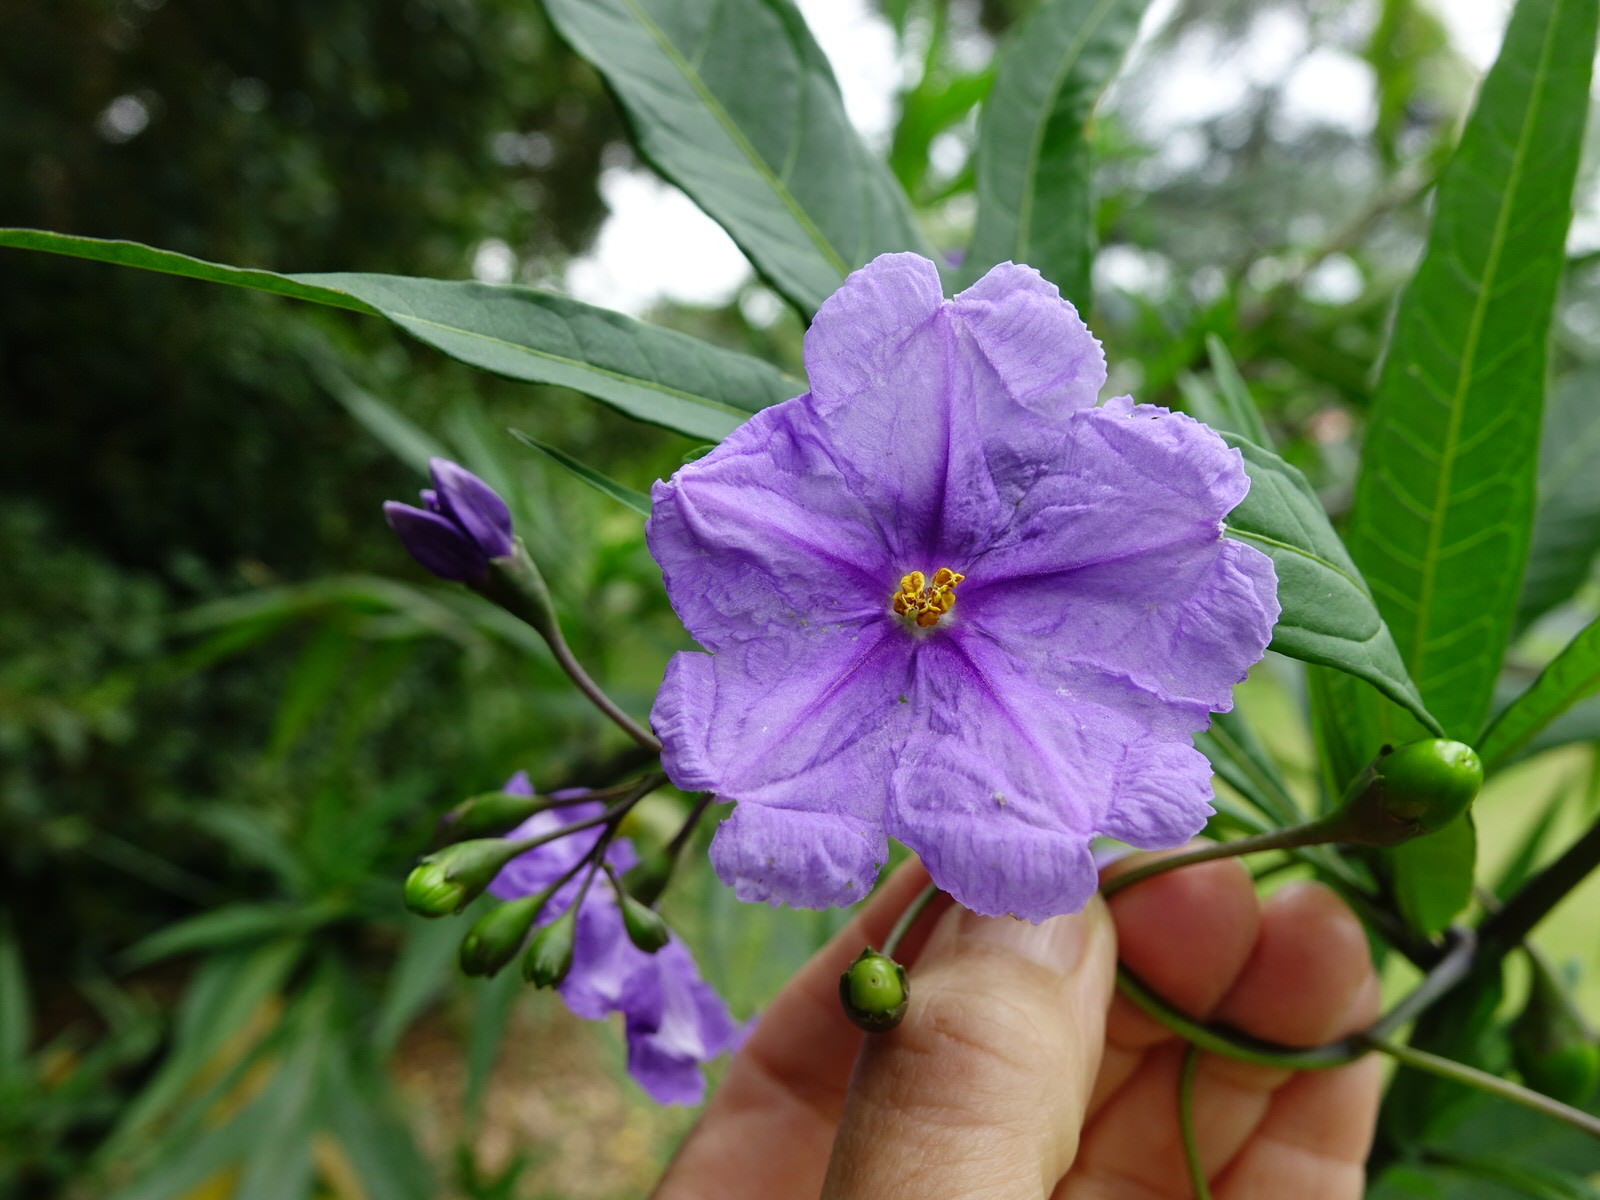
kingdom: Plantae
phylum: Tracheophyta
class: Magnoliopsida
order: Solanales
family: Solanaceae
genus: Solanum
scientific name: Solanum laciniatum
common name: Kangaroo-apple
